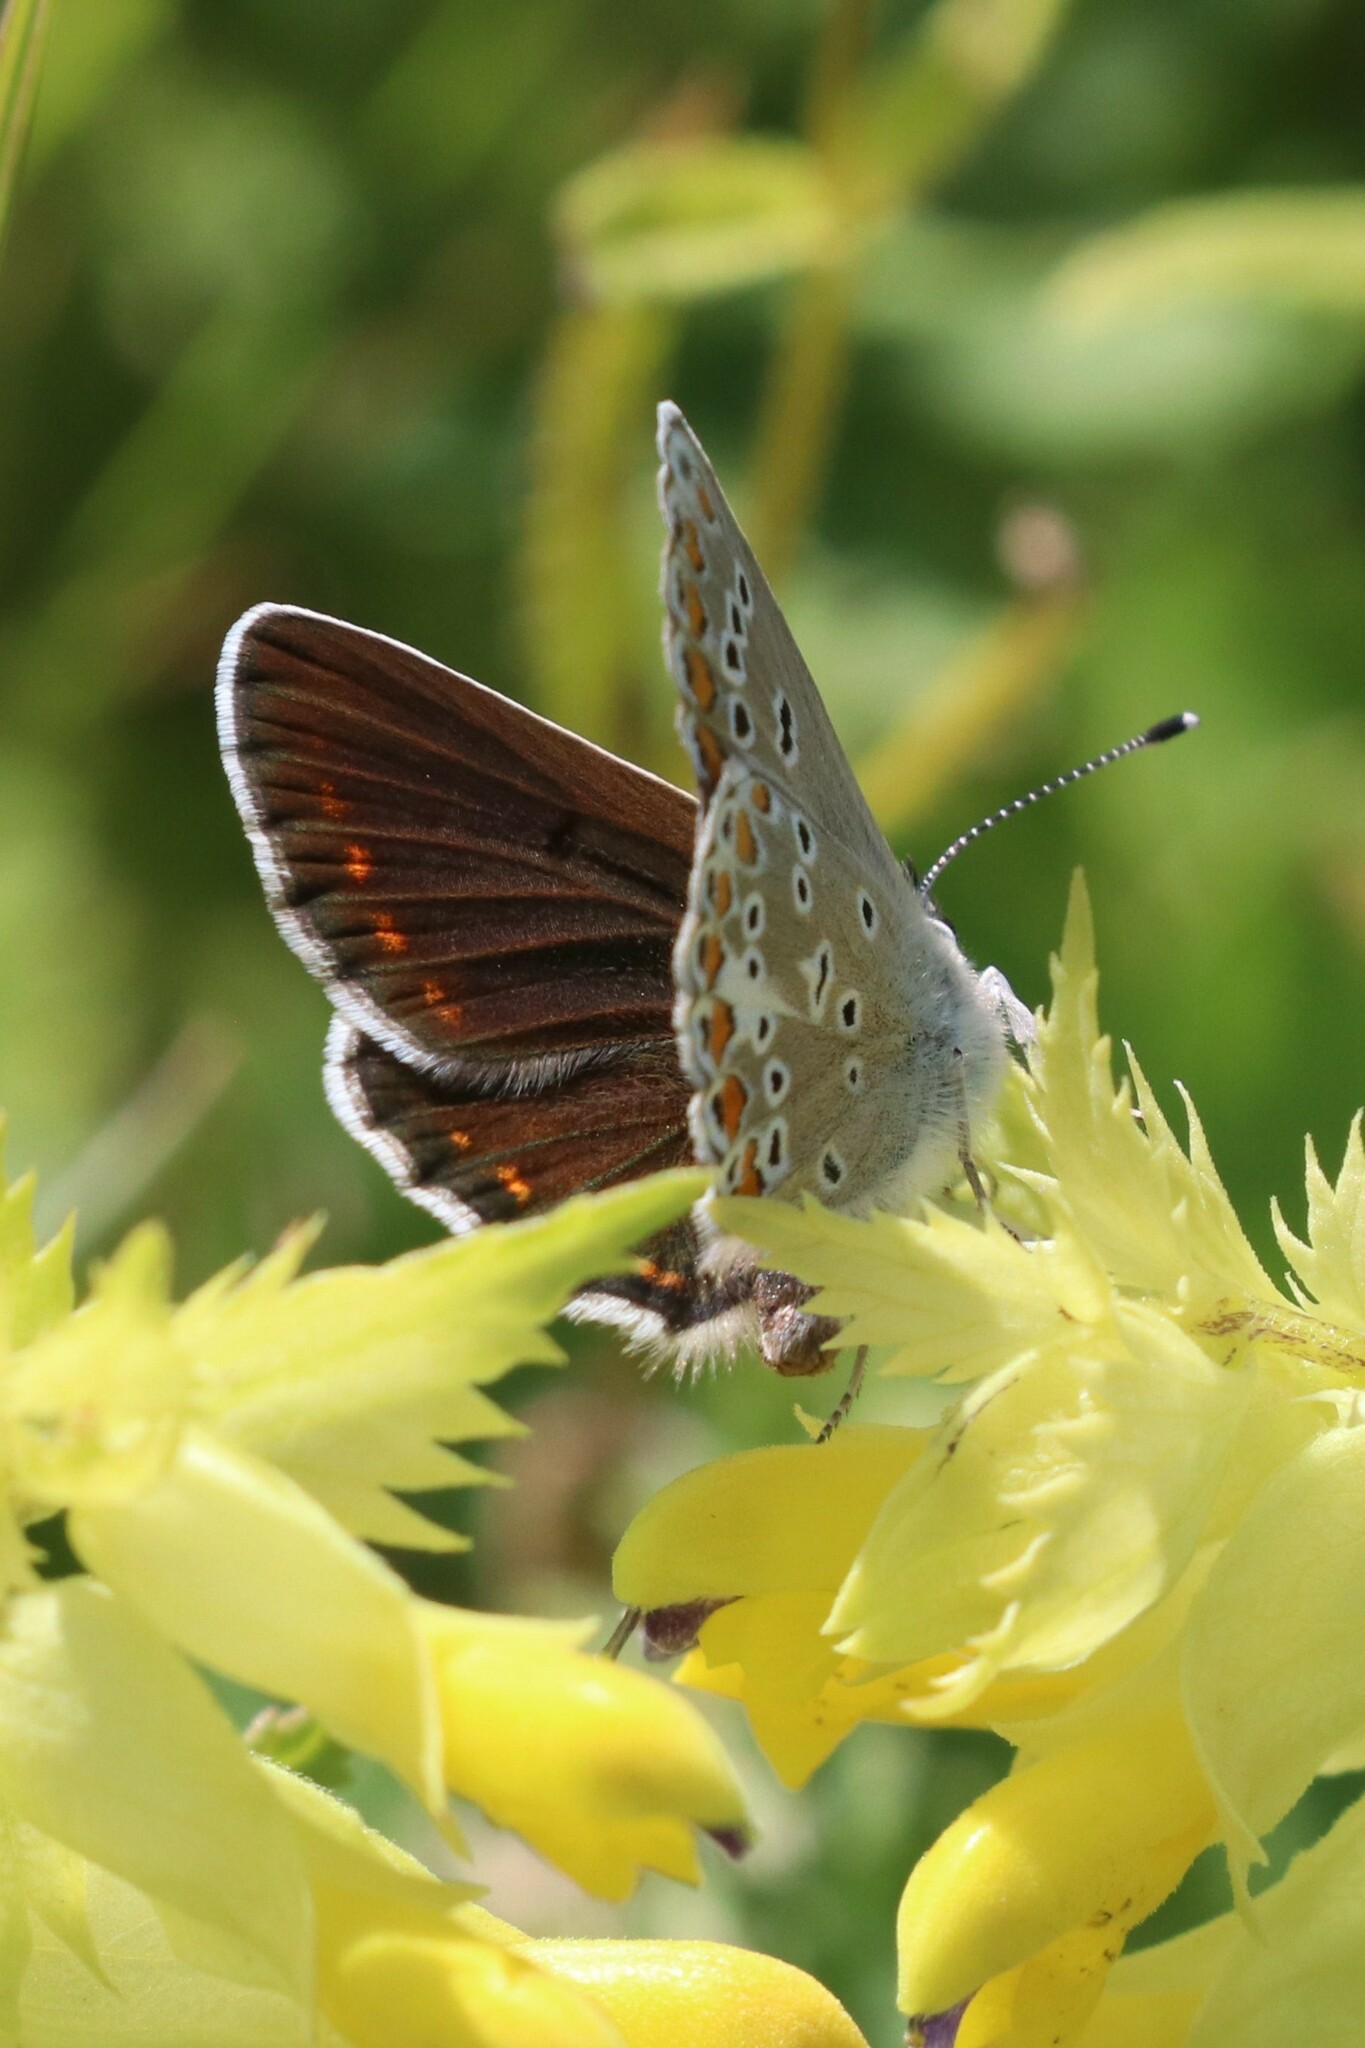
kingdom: Animalia
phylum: Arthropoda
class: Insecta
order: Lepidoptera
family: Lycaenidae
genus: Aricia
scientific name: Aricia artaxerxes
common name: Northern brown argus
